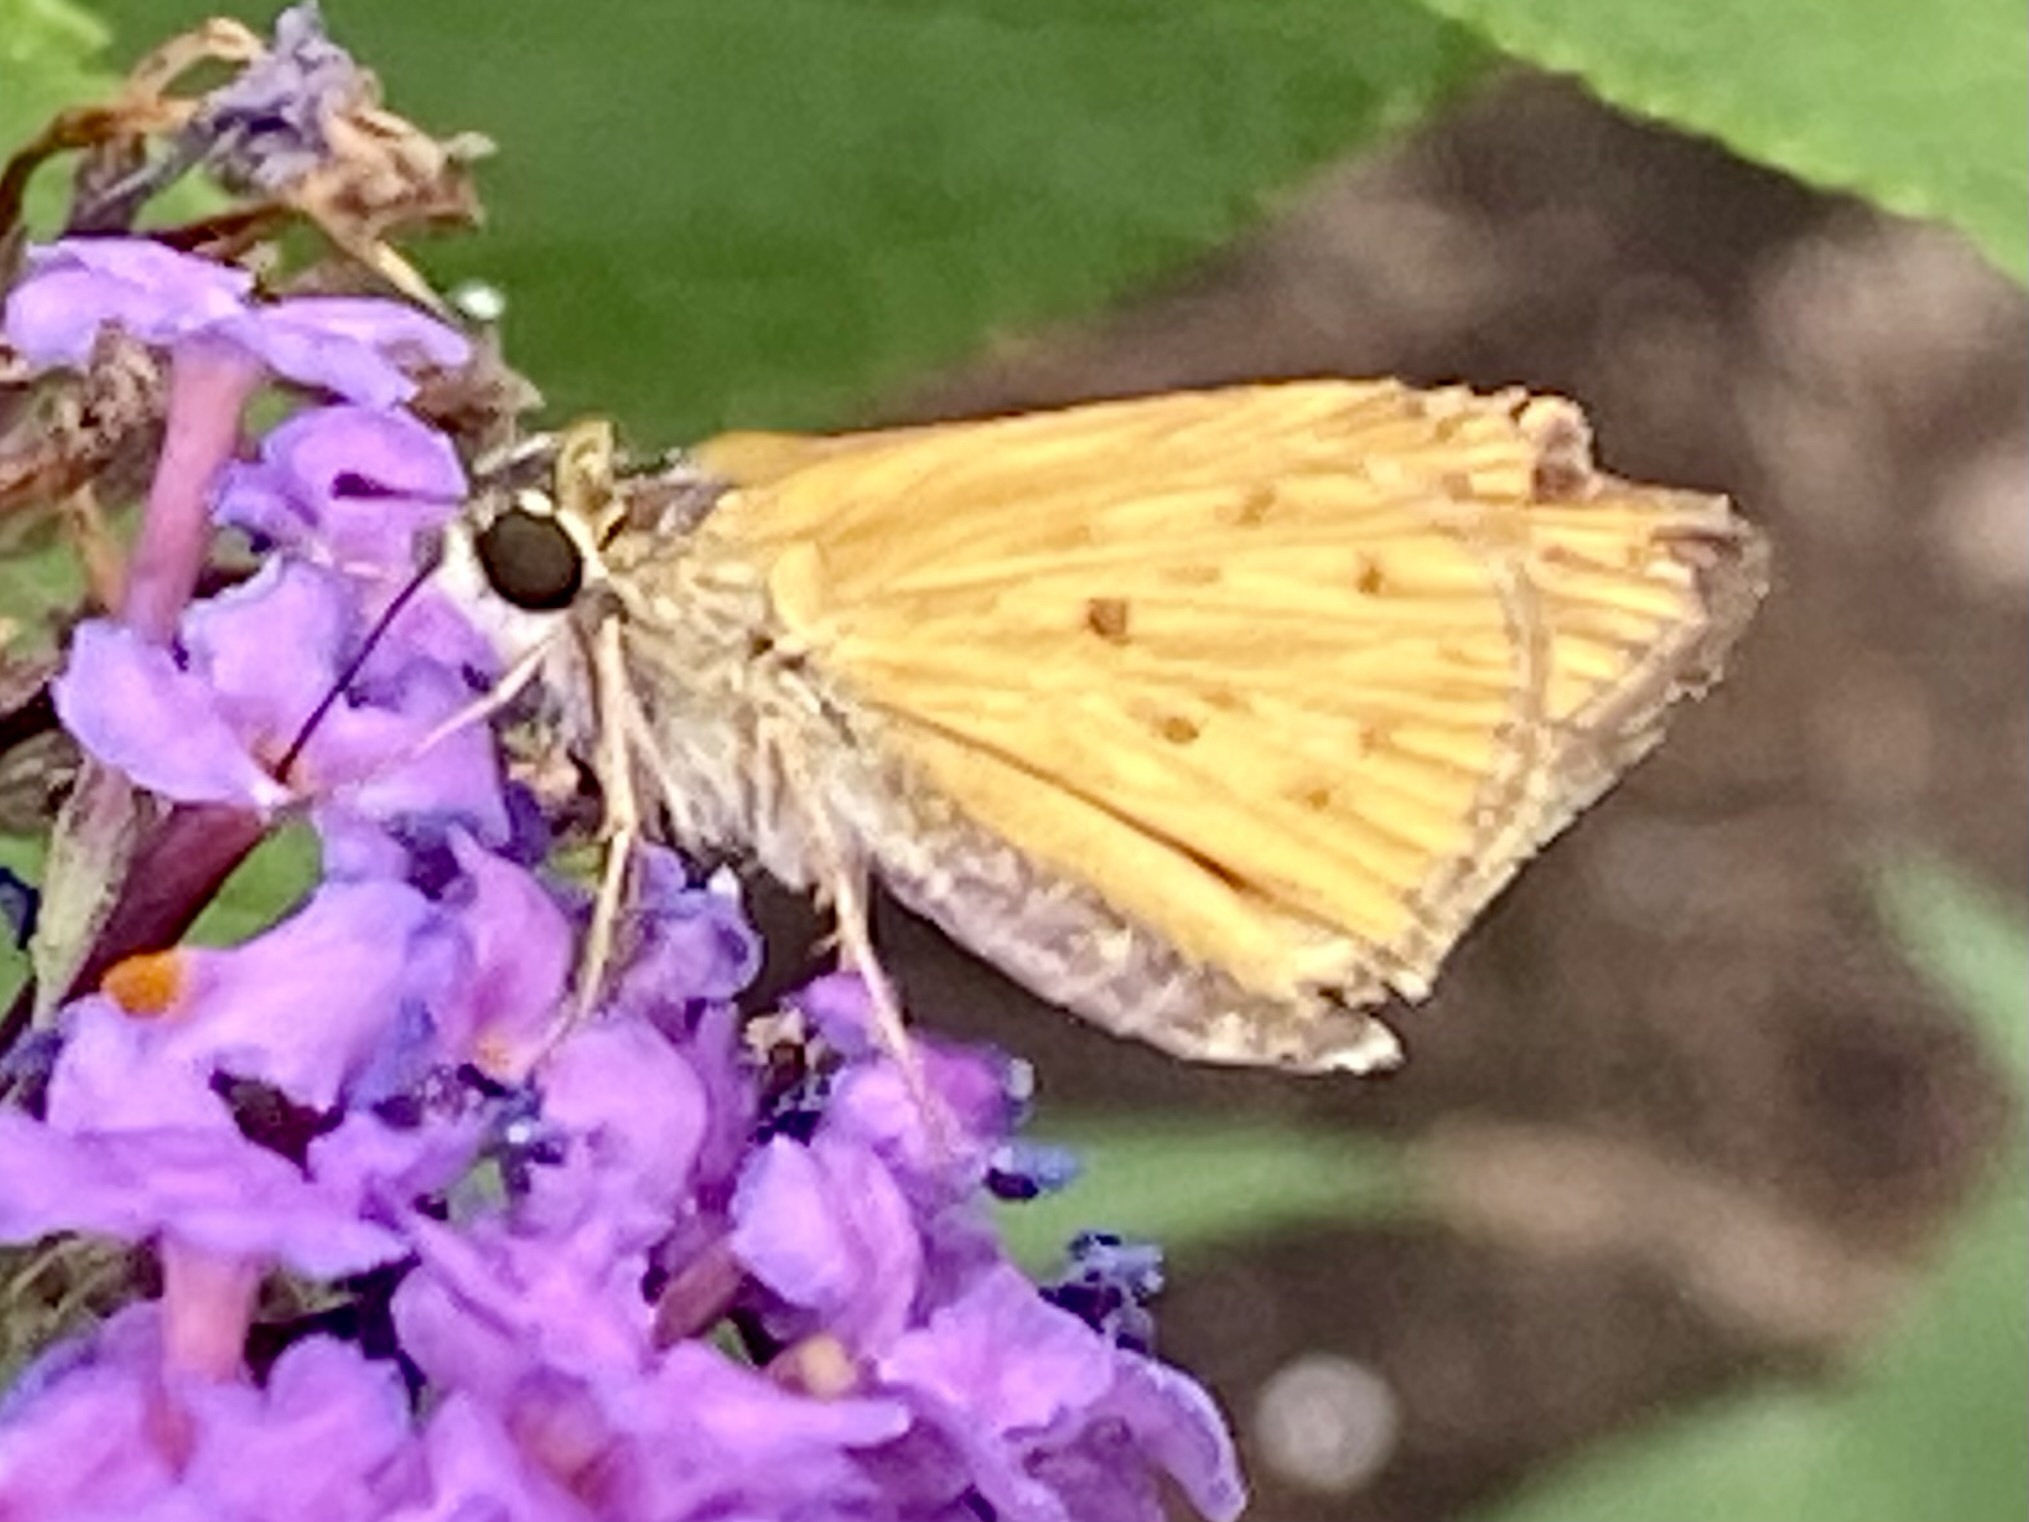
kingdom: Animalia
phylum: Arthropoda
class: Insecta
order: Lepidoptera
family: Hesperiidae
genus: Hylephila
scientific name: Hylephila phyleus
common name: Fiery skipper
